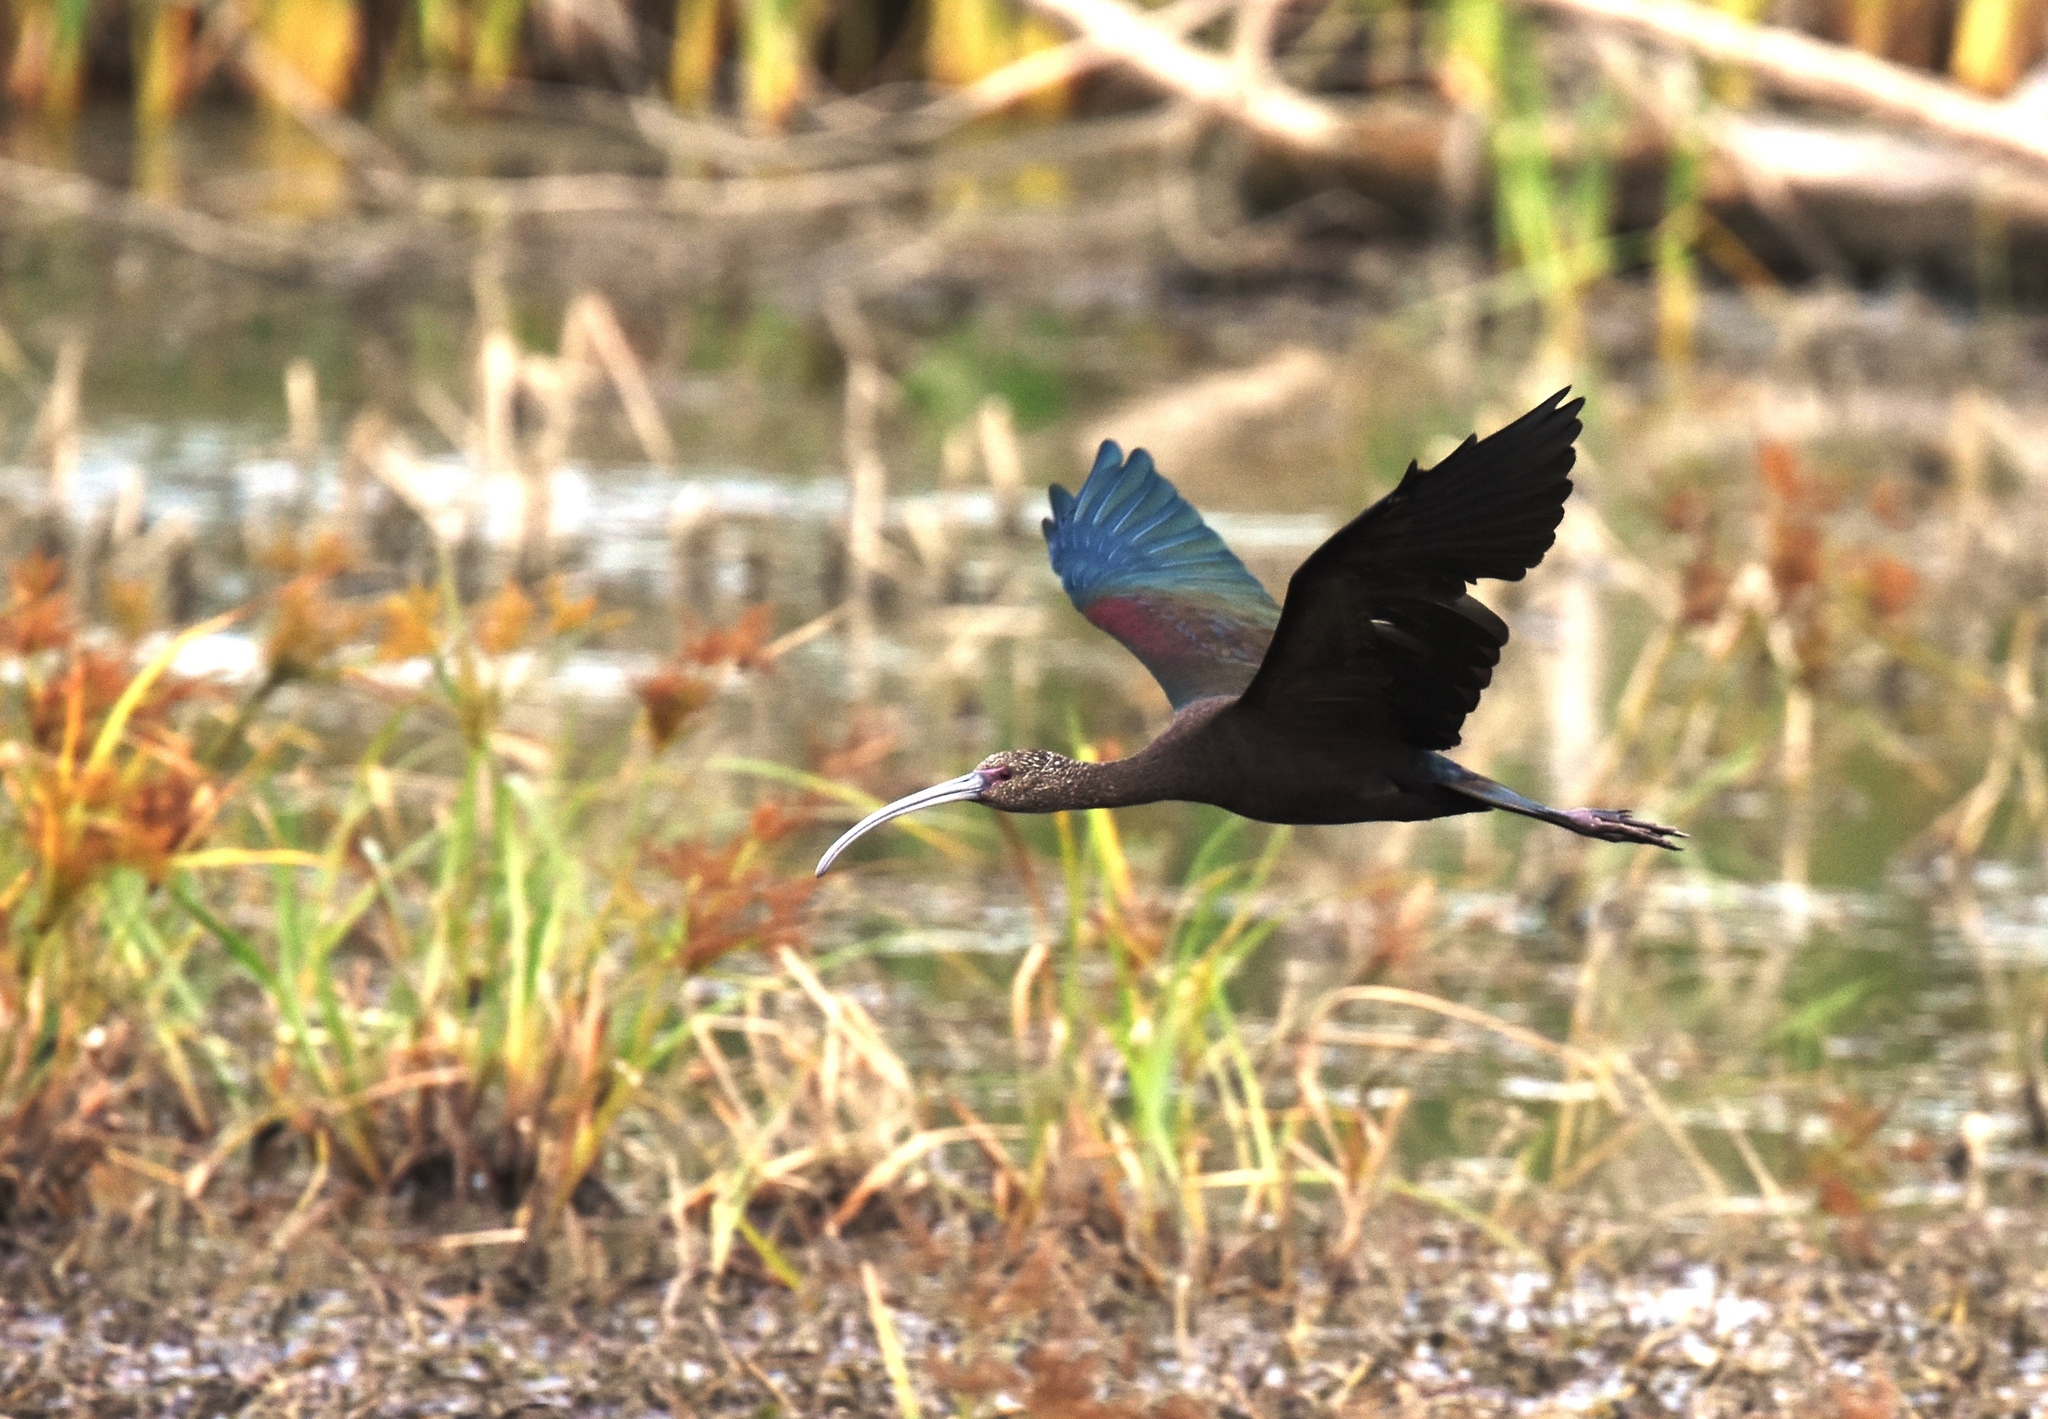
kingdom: Animalia
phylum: Chordata
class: Aves
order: Pelecaniformes
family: Threskiornithidae
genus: Plegadis
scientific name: Plegadis chihi
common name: White-faced ibis
